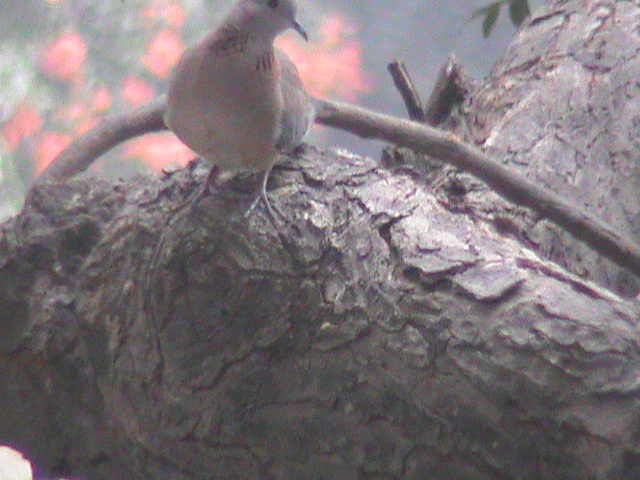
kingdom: Animalia
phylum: Chordata
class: Aves
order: Columbiformes
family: Columbidae
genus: Spilopelia
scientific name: Spilopelia senegalensis
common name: Laughing dove
